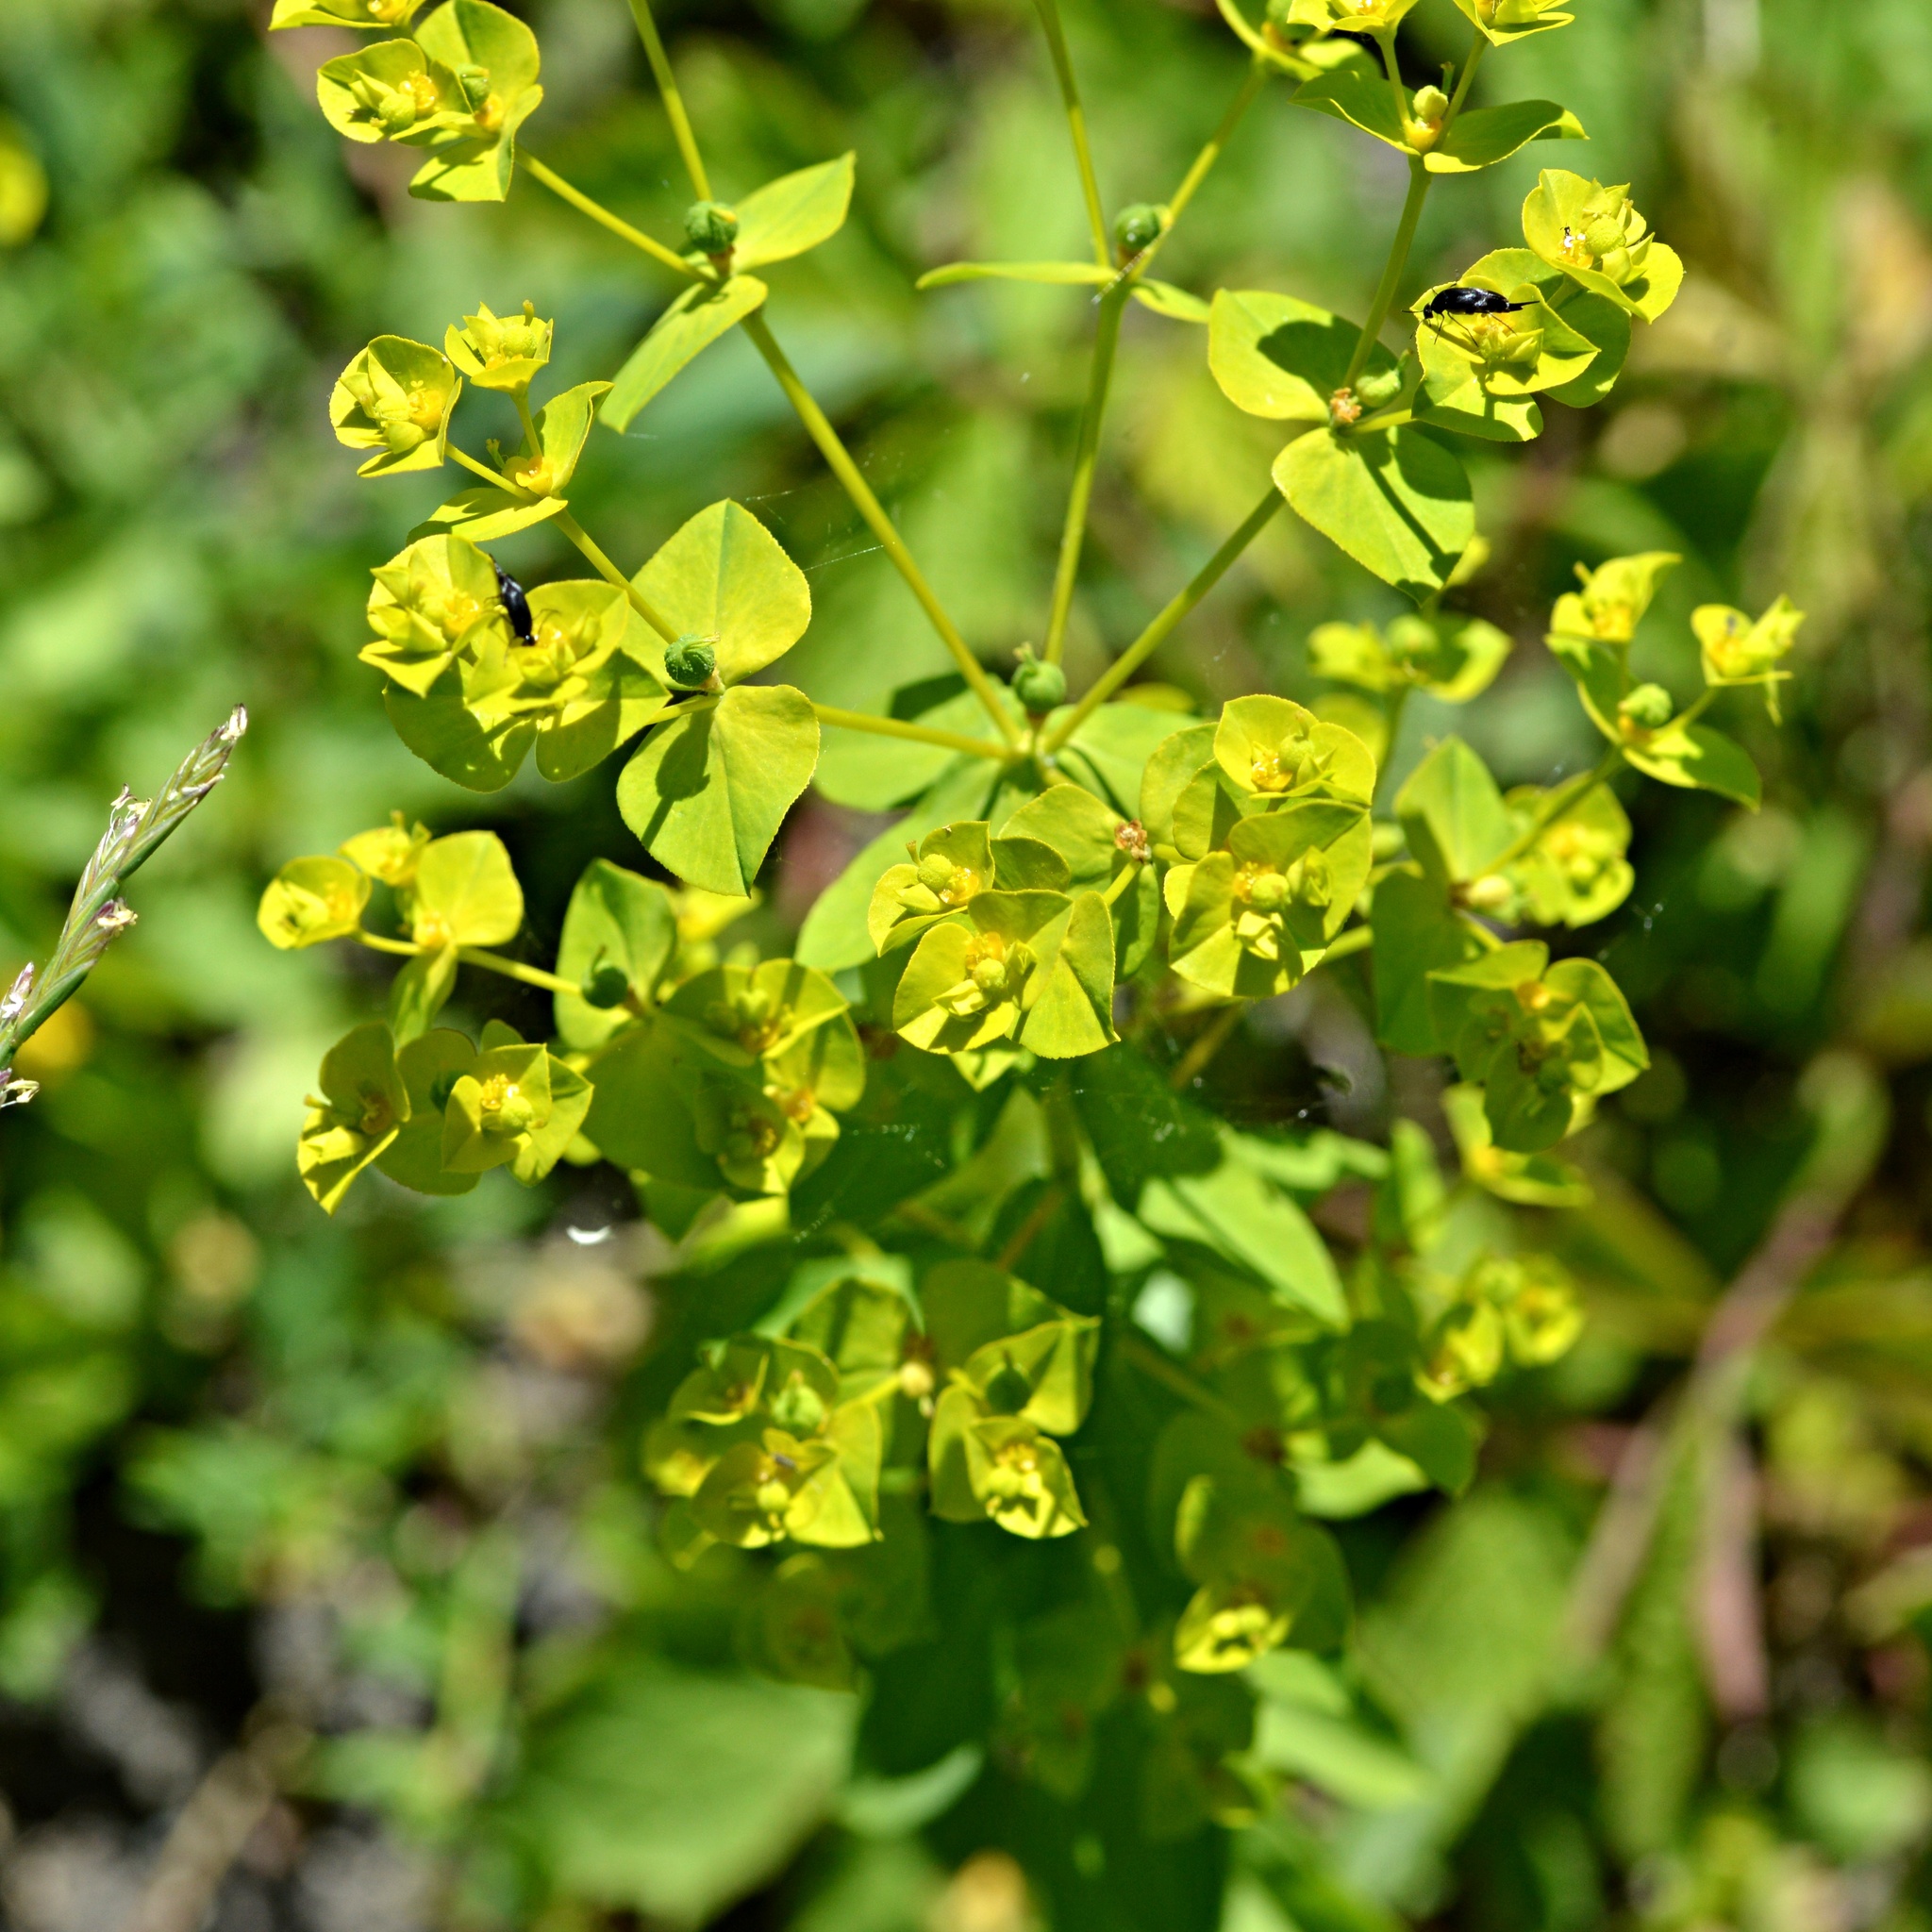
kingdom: Plantae
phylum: Tracheophyta
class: Magnoliopsida
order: Malpighiales
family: Euphorbiaceae
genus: Euphorbia
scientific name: Euphorbia platyphyllos
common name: Broad-leaved spurge
